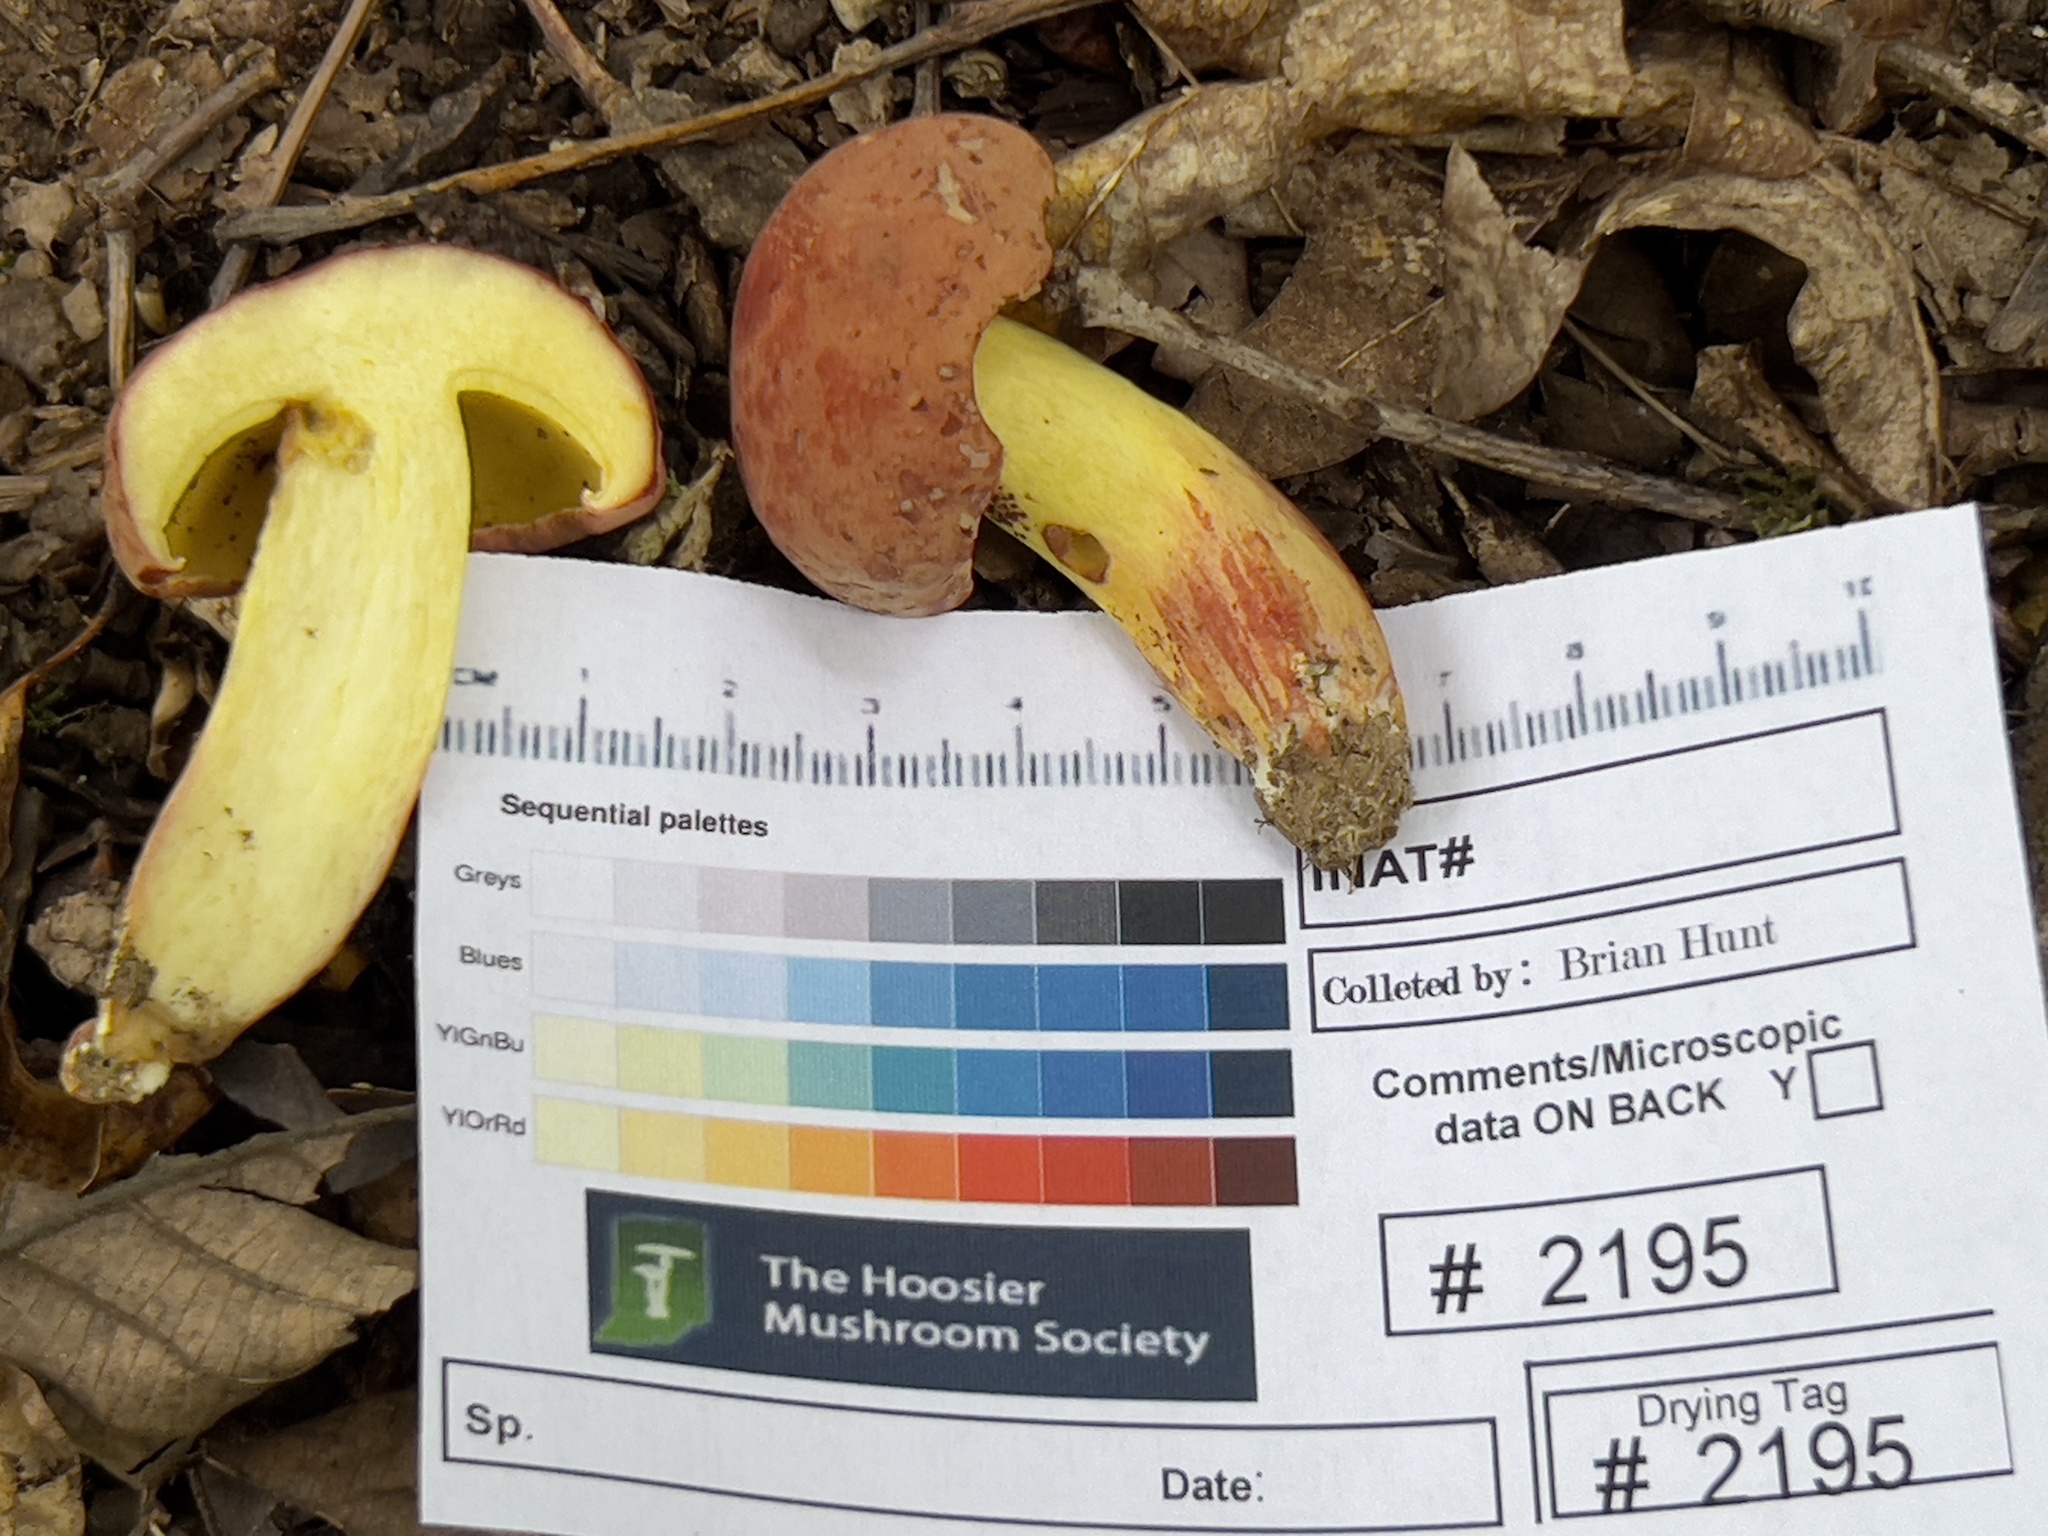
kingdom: Fungi
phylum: Basidiomycota
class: Agaricomycetes
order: Boletales
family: Boletaceae
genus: Boletus
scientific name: Boletus roodyi
